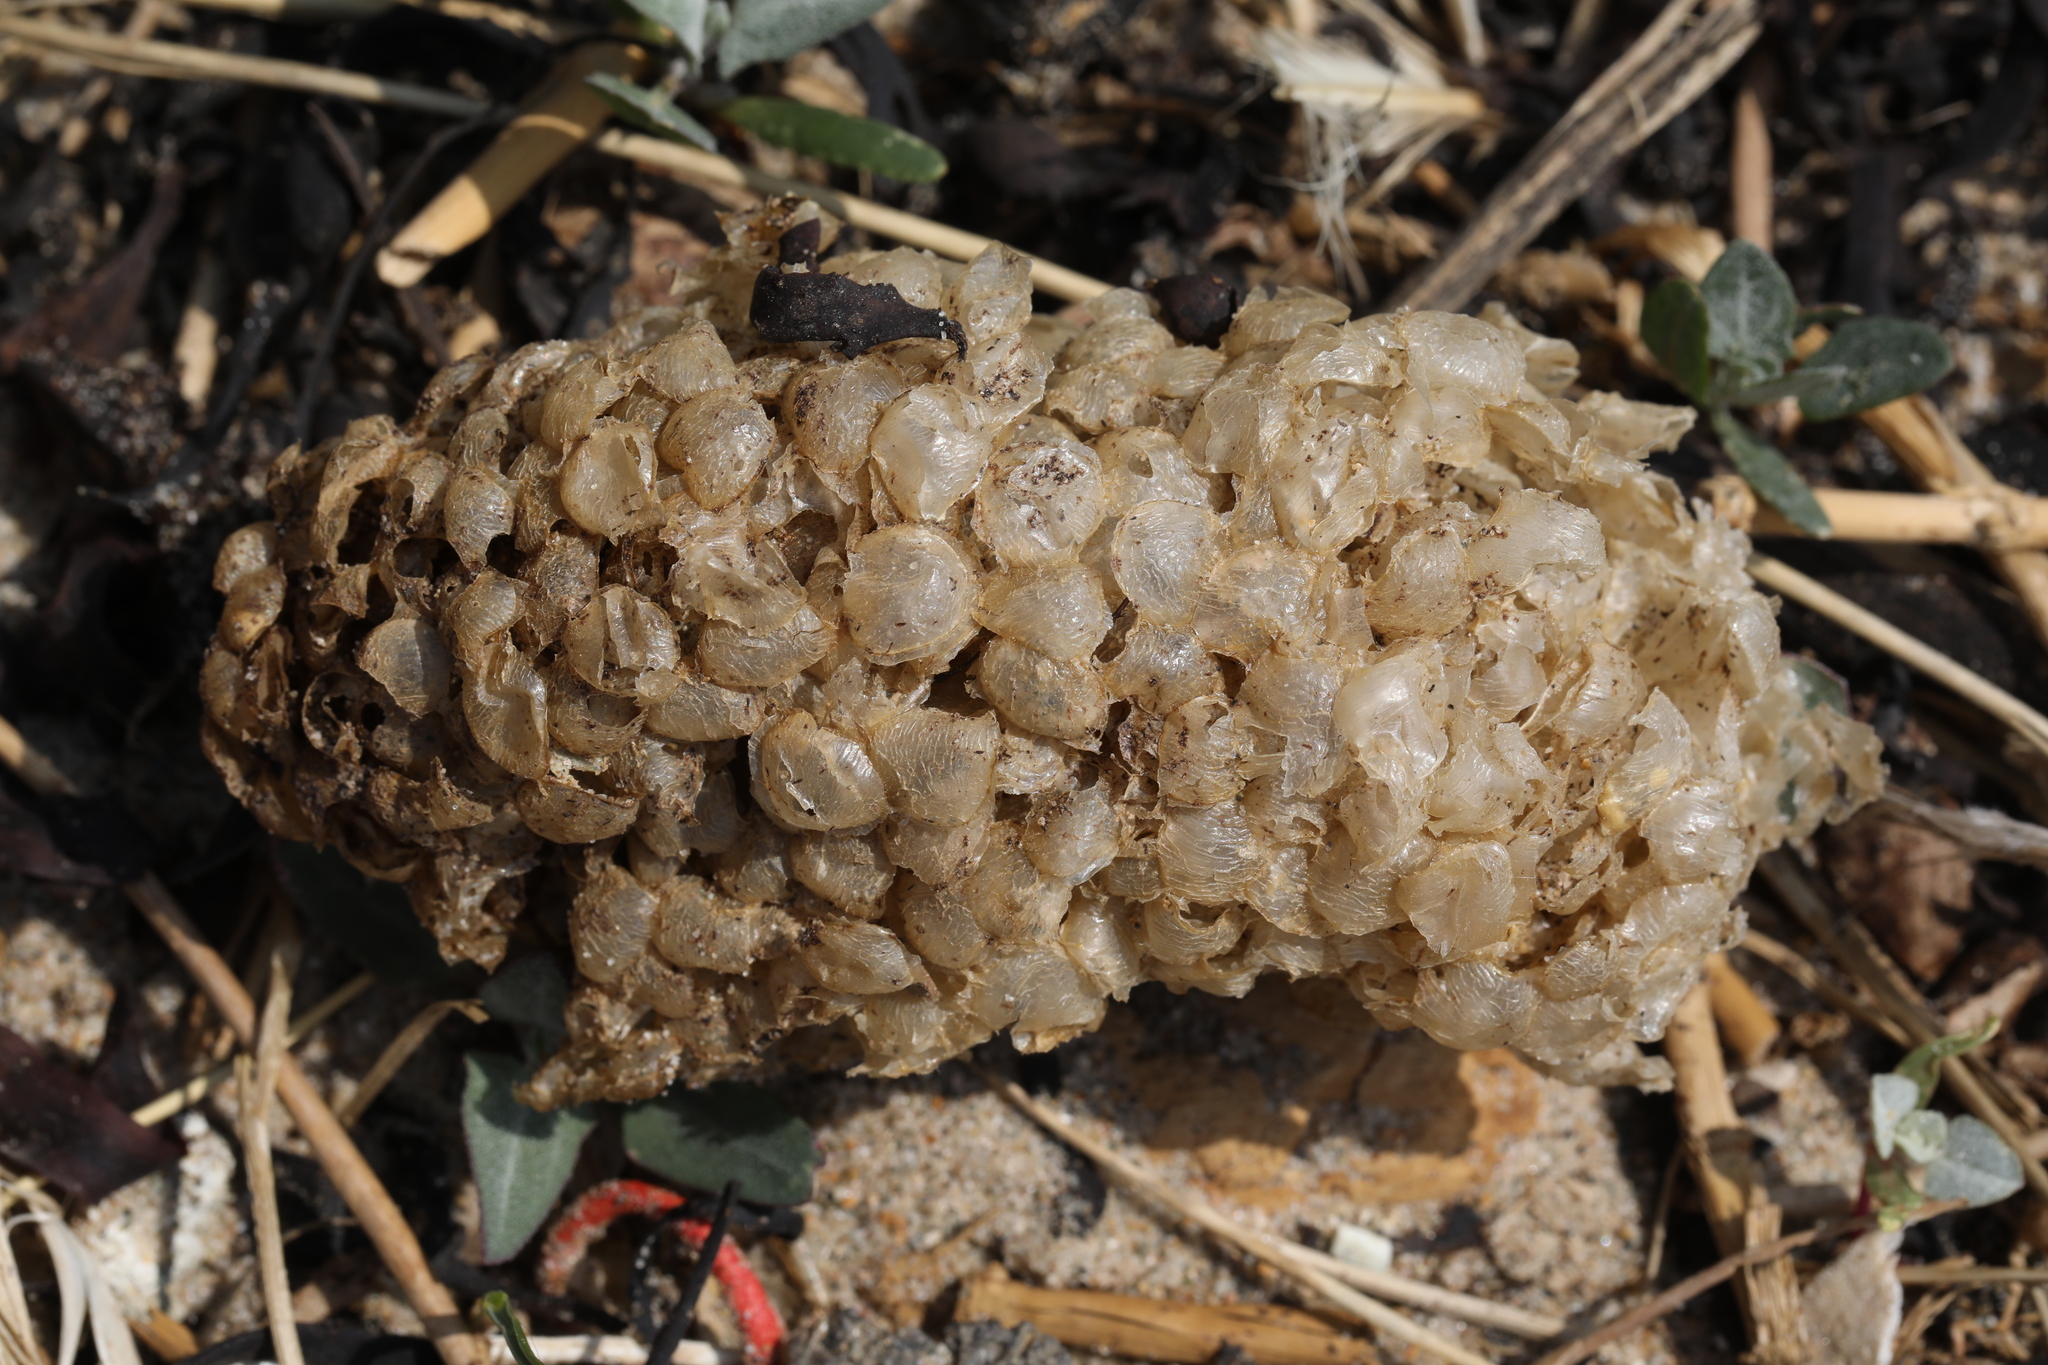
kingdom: Animalia
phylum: Mollusca
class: Gastropoda
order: Neogastropoda
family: Buccinidae
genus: Buccinum
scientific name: Buccinum undatum
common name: Common whelk
